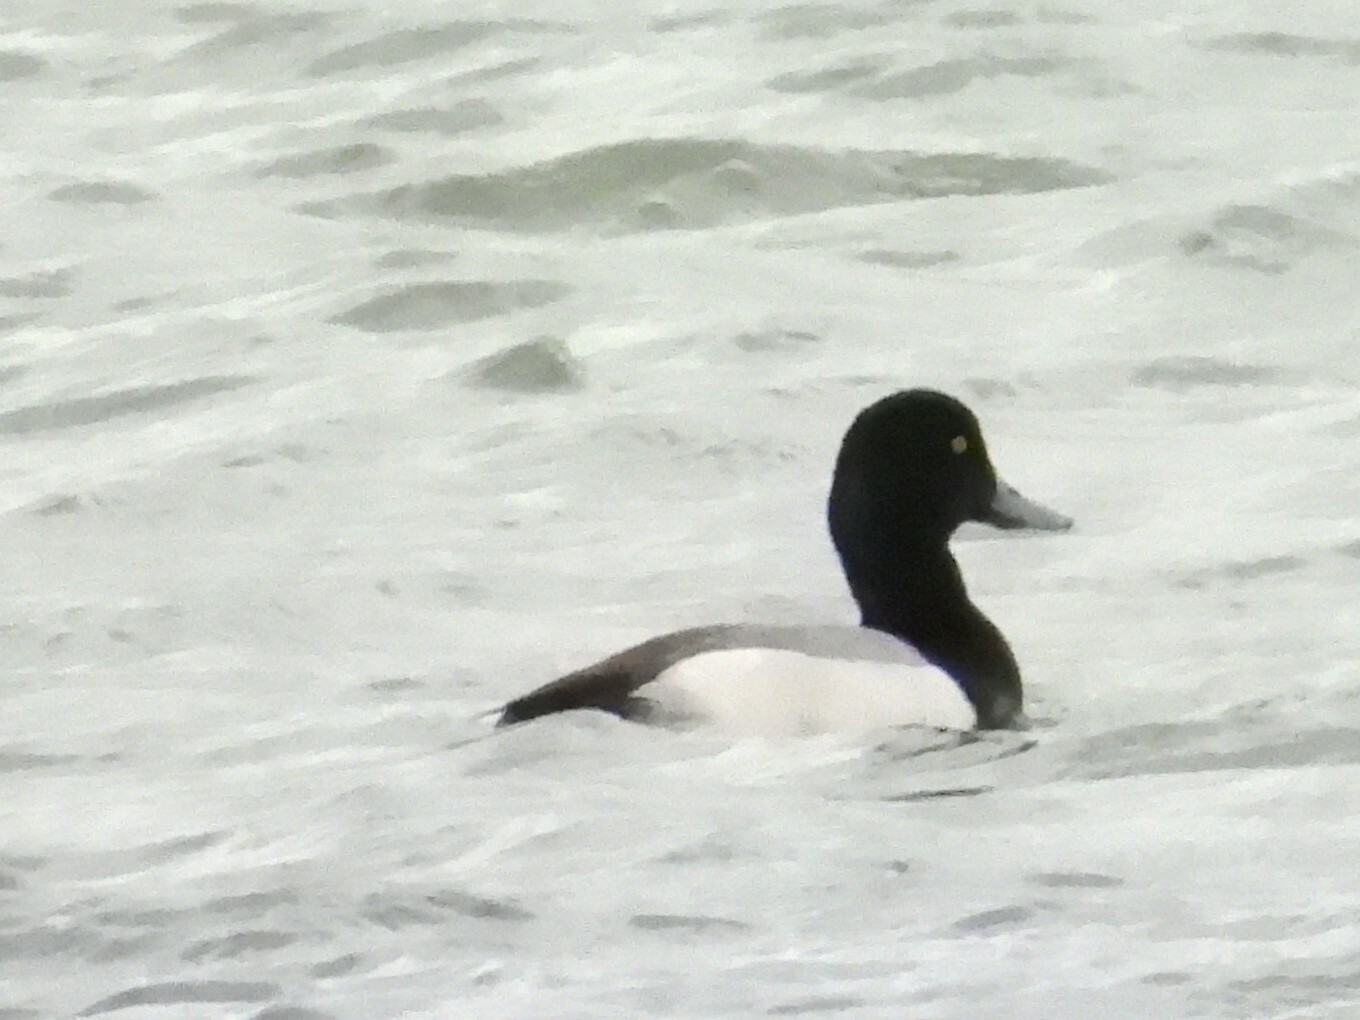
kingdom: Animalia
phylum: Chordata
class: Aves
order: Anseriformes
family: Anatidae
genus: Aythya
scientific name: Aythya marila
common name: Greater scaup
